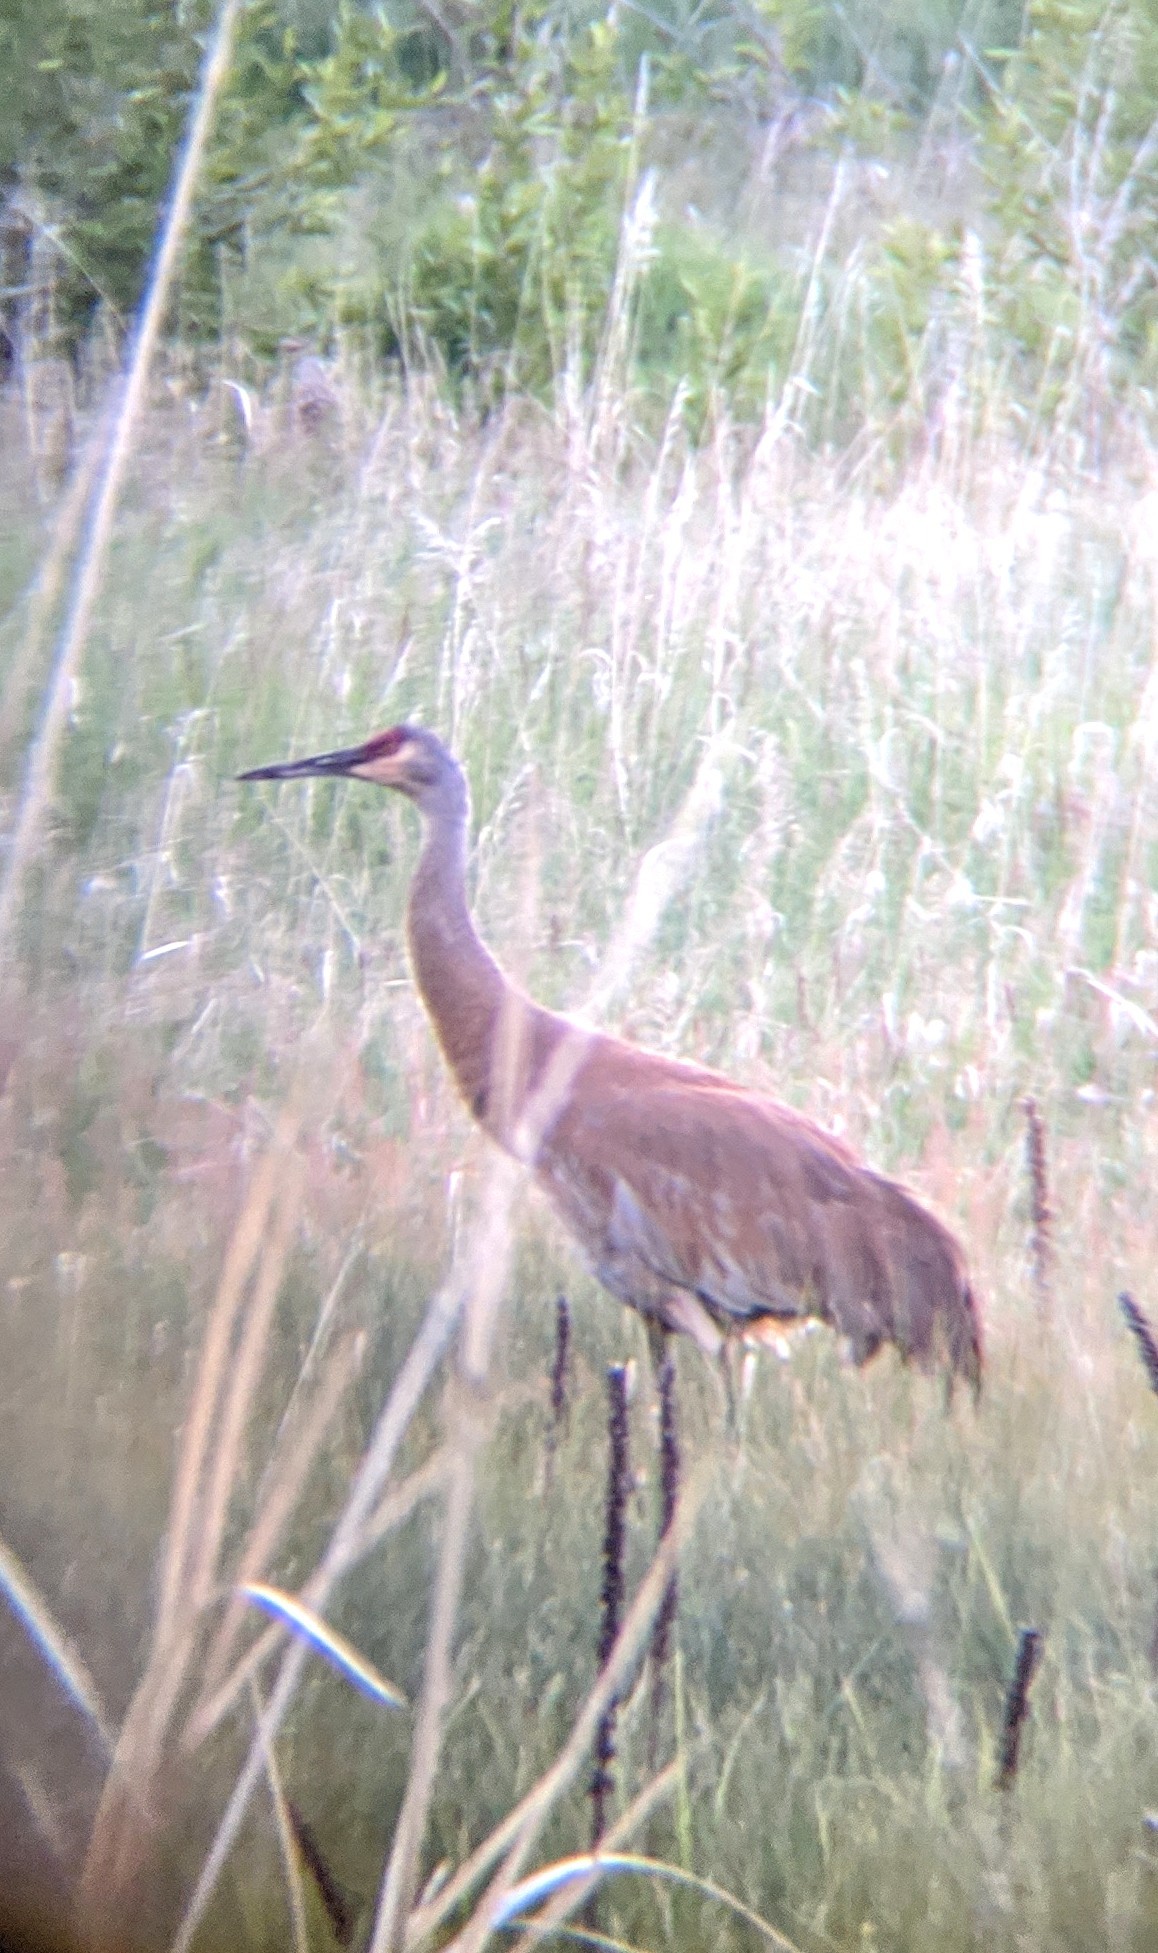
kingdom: Animalia
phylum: Chordata
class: Aves
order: Gruiformes
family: Gruidae
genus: Grus
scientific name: Grus canadensis
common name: Sandhill crane
